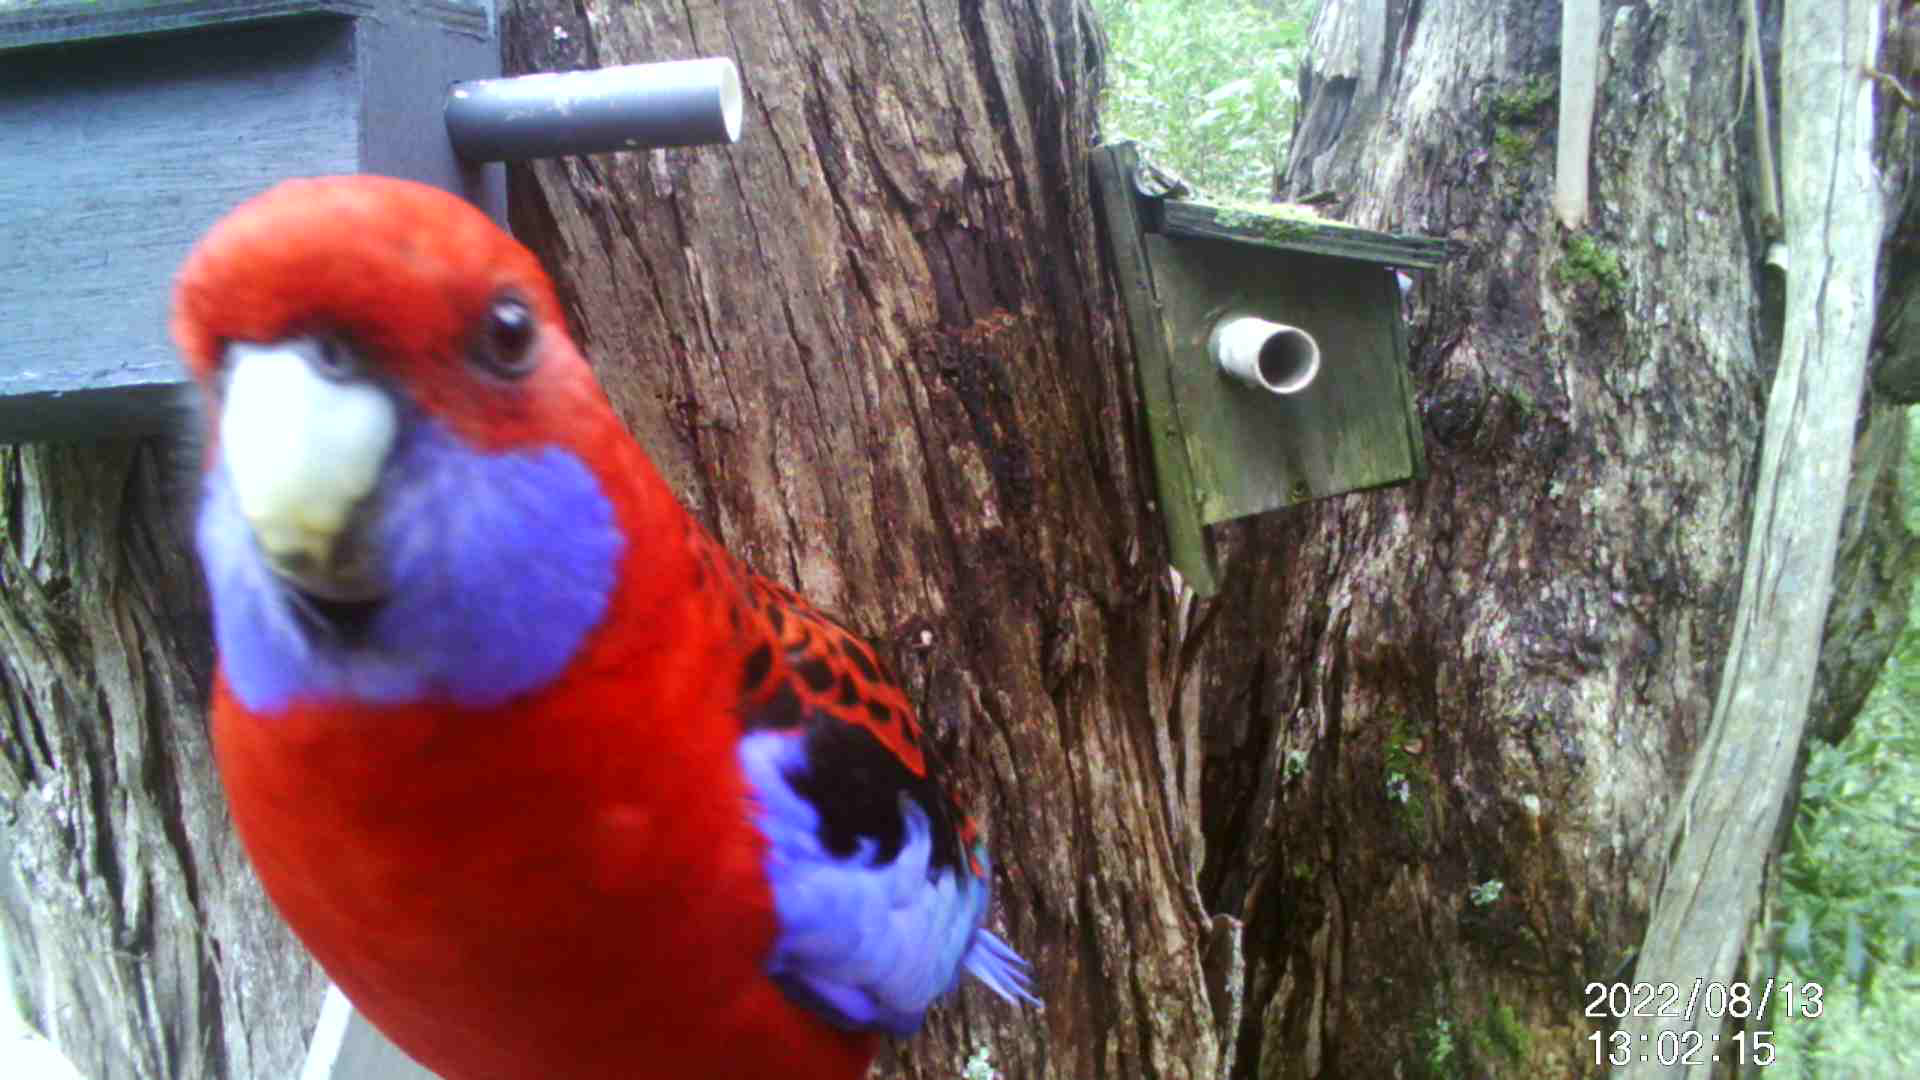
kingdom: Animalia
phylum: Chordata
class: Aves
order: Psittaciformes
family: Psittacidae
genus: Platycercus
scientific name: Platycercus elegans
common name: Crimson rosella
